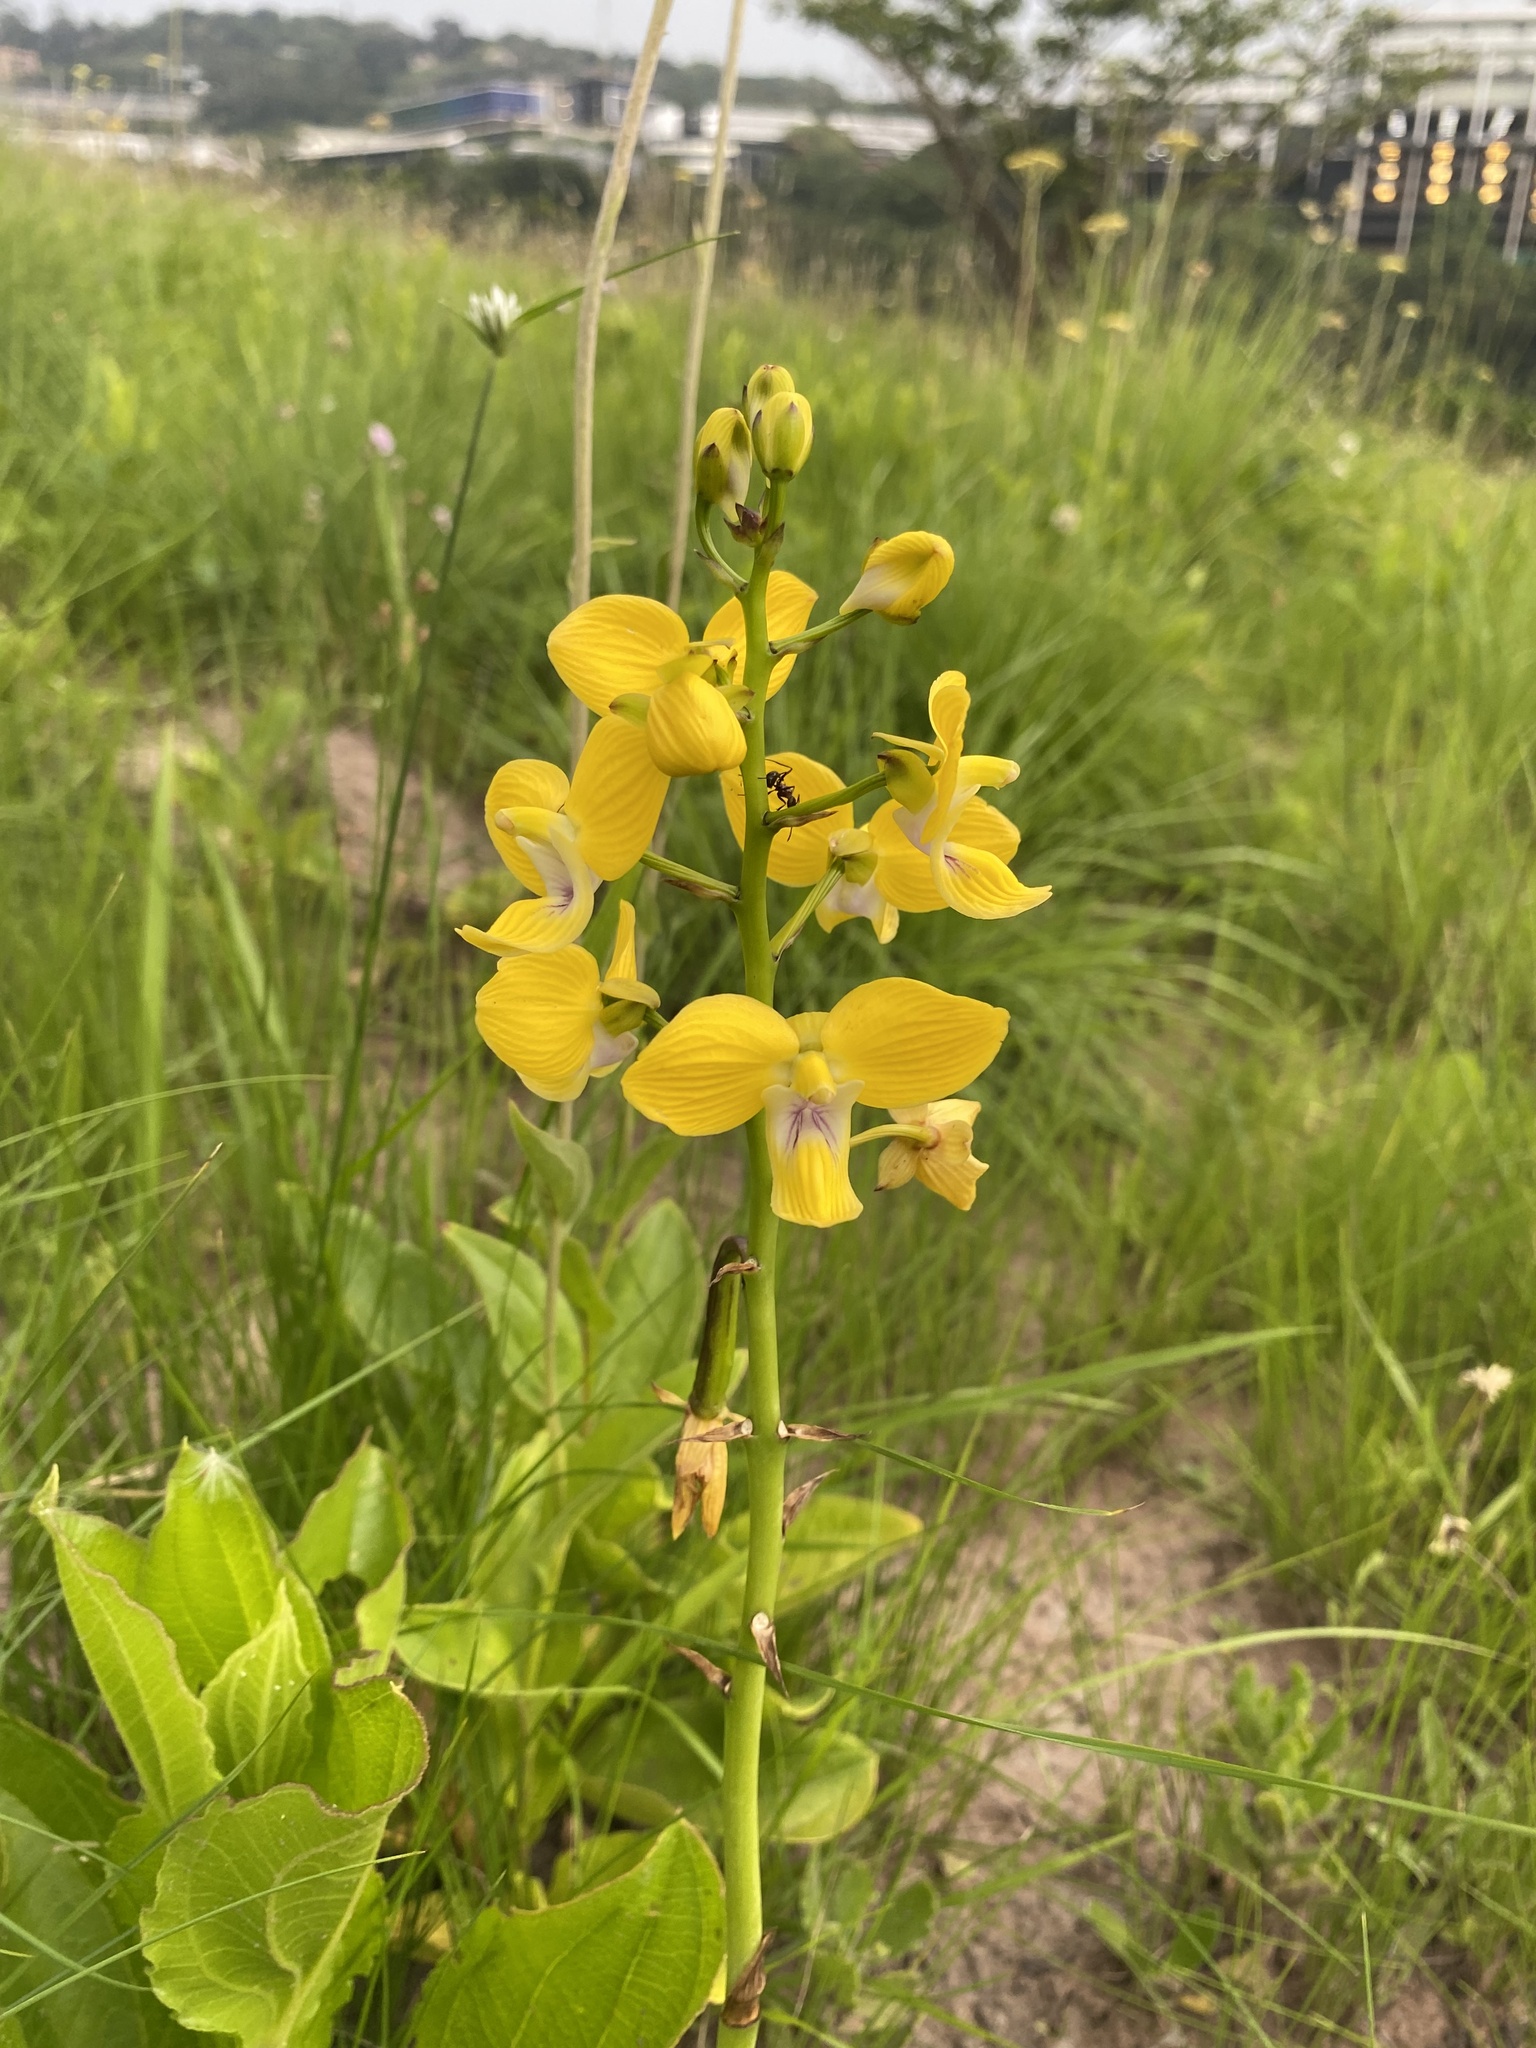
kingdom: Plantae
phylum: Tracheophyta
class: Liliopsida
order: Asparagales
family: Orchidaceae
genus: Eulophia
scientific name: Eulophia speciosa
